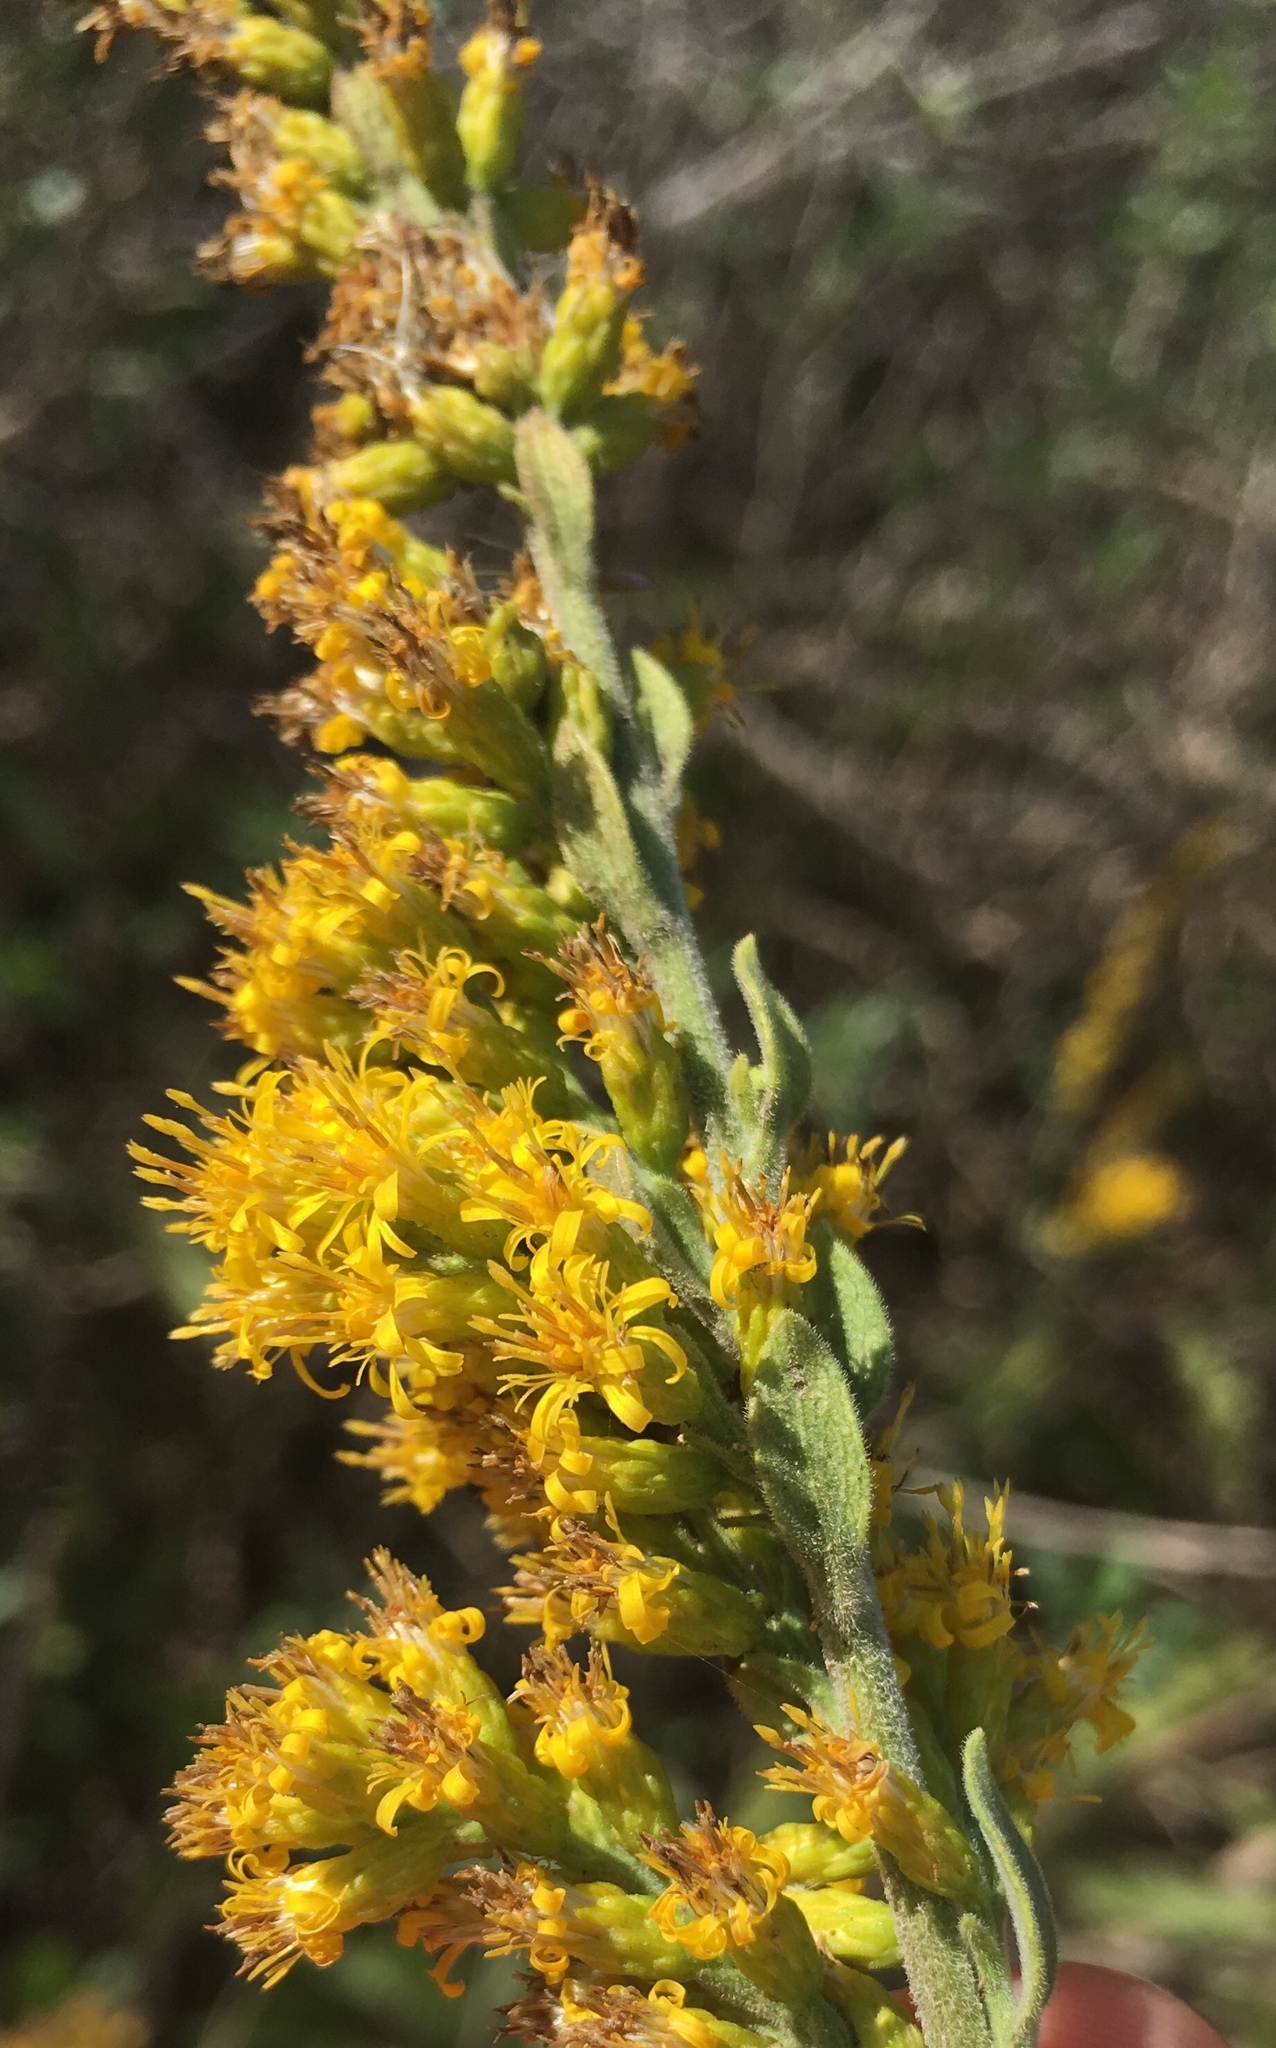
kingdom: Plantae
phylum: Tracheophyta
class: Magnoliopsida
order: Asterales
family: Asteraceae
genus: Solidago
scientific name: Solidago velutina
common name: Three-nerve goldenrod
